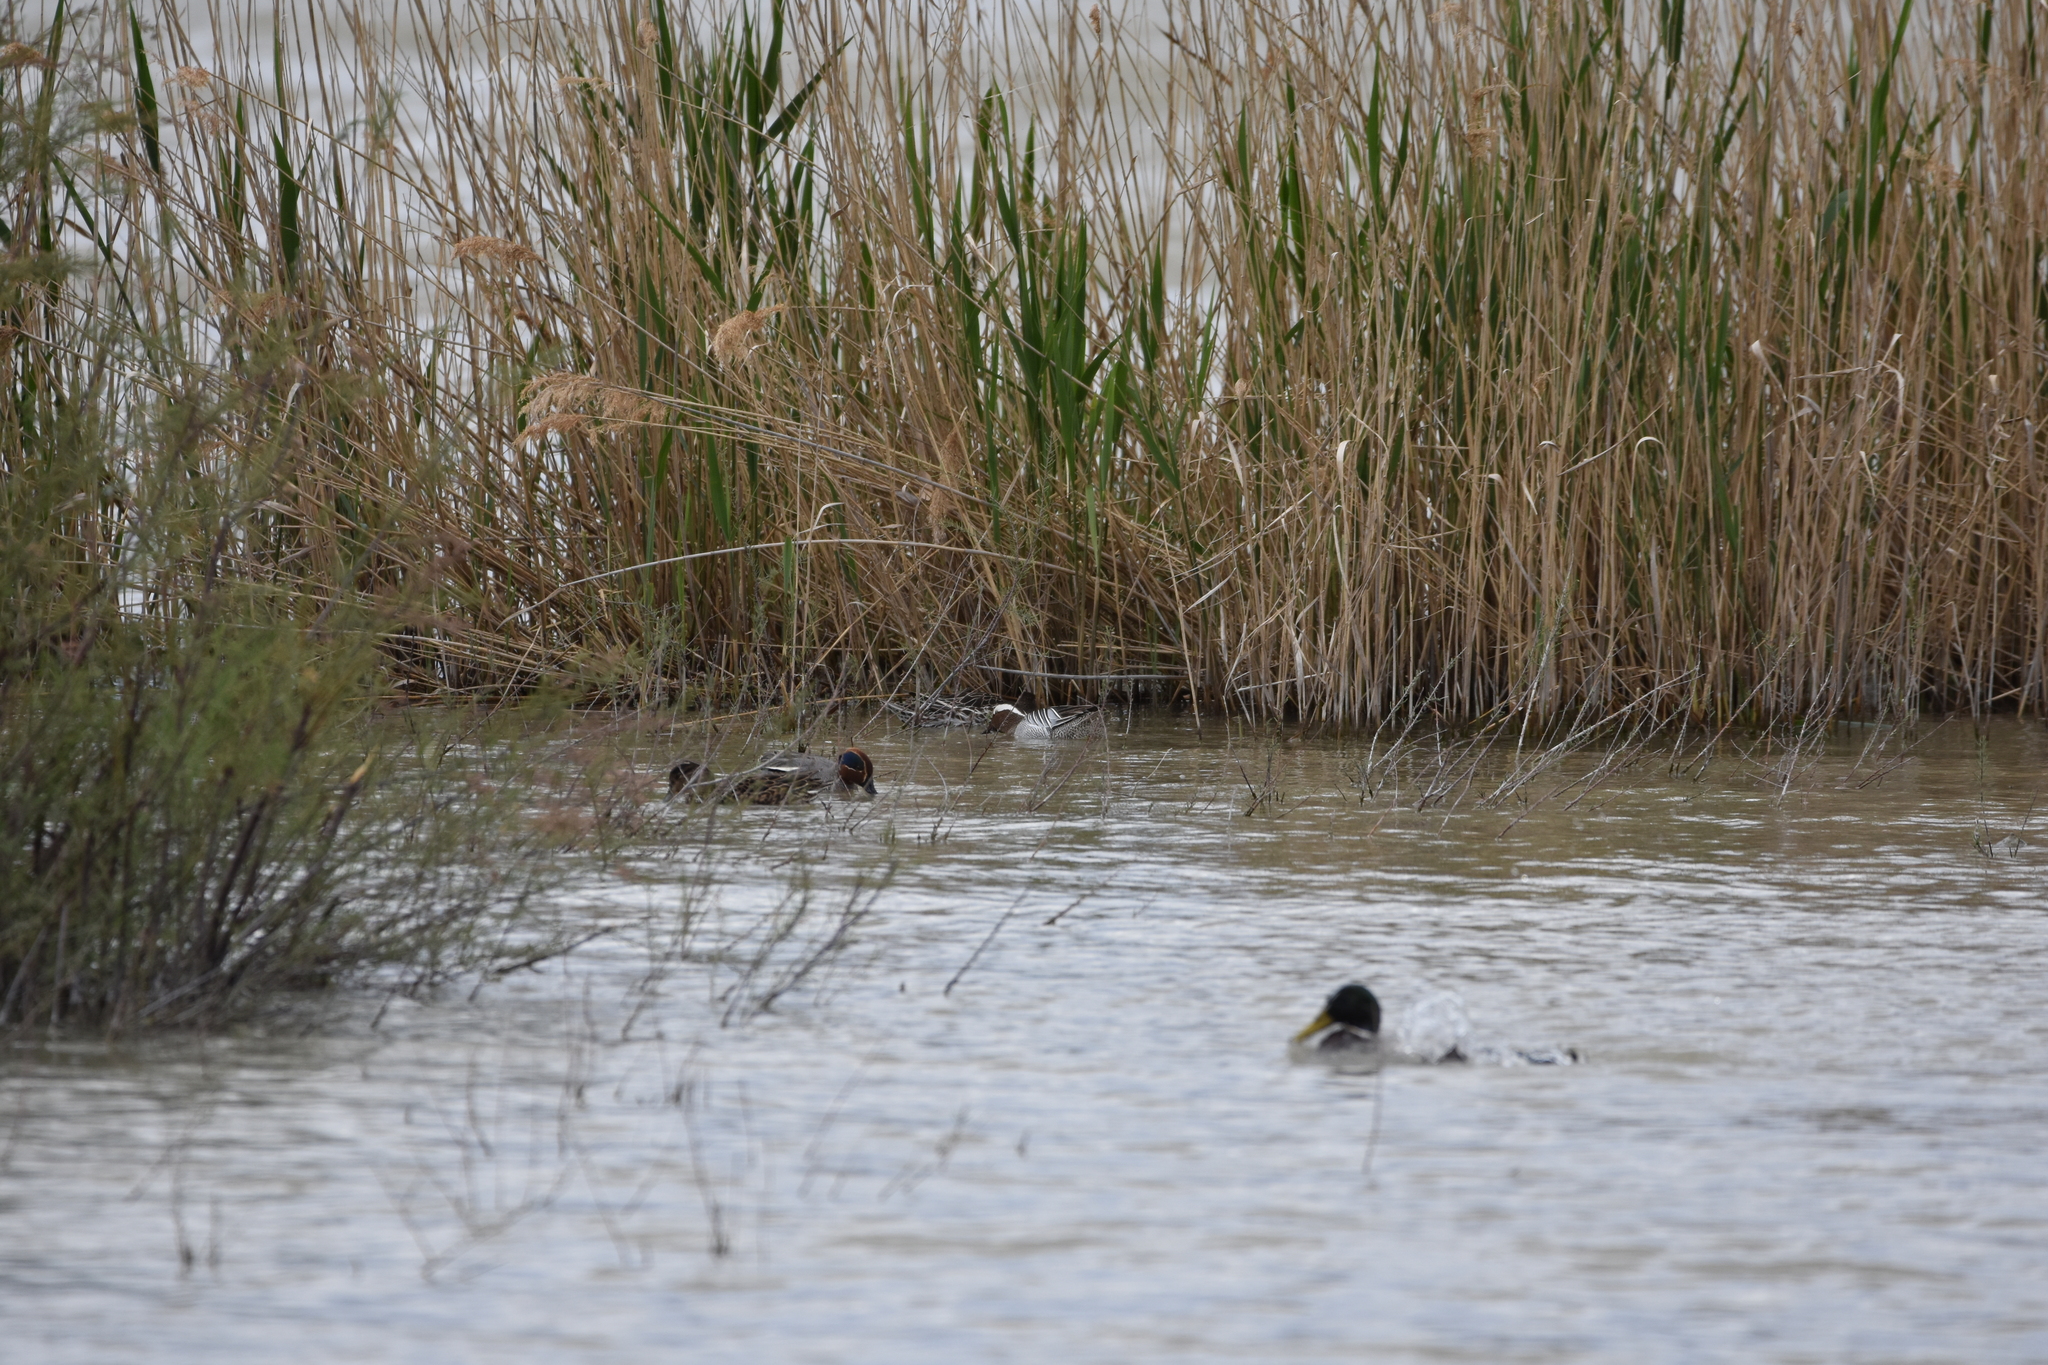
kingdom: Animalia
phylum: Chordata
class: Aves
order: Anseriformes
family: Anatidae
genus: Spatula
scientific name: Spatula querquedula
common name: Garganey
